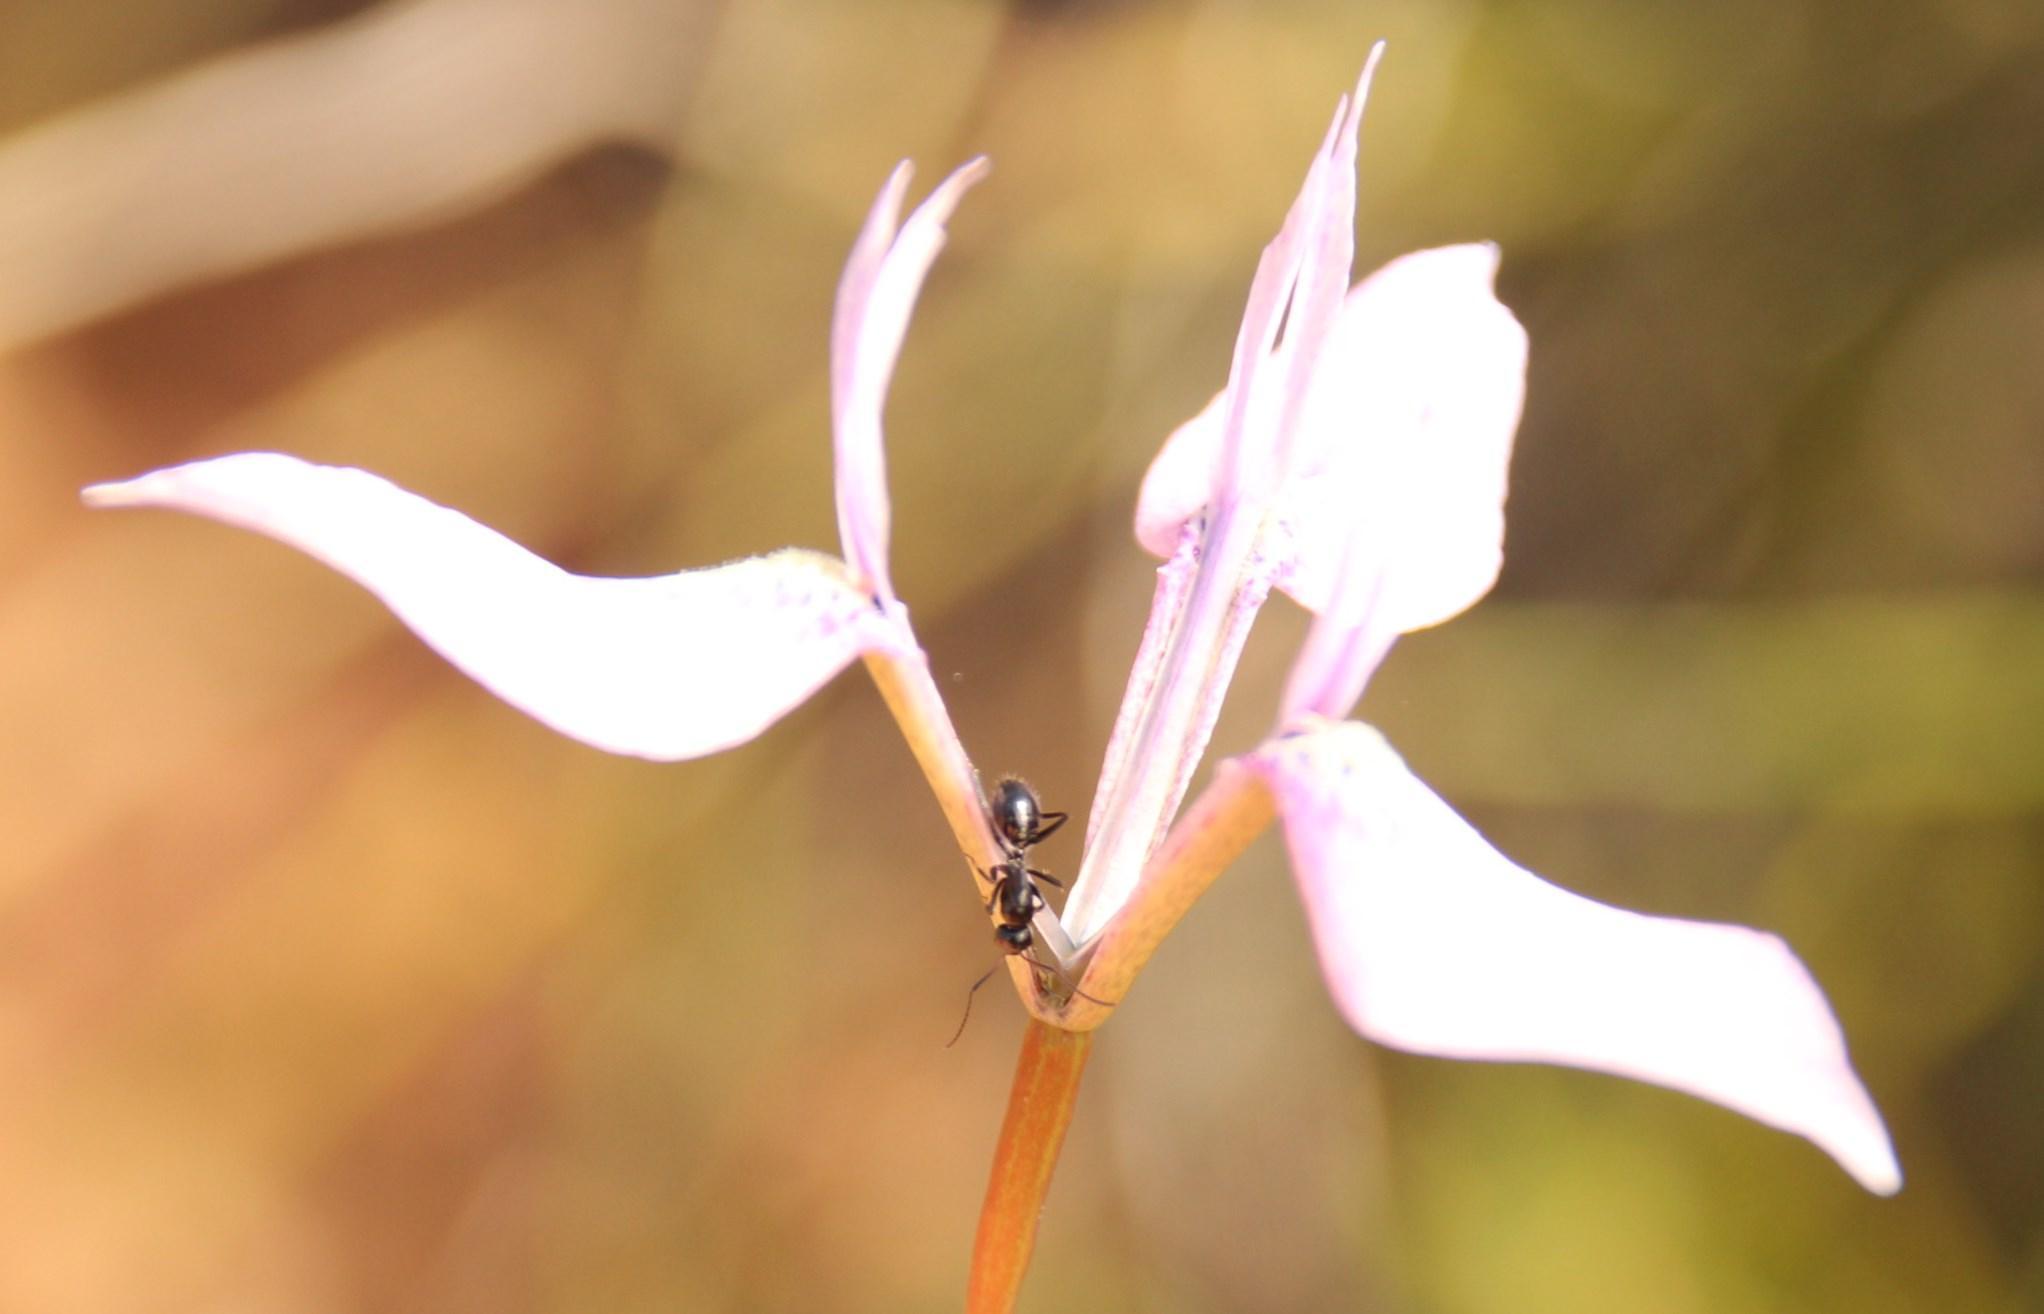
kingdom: Animalia
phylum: Arthropoda
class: Insecta
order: Hymenoptera
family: Formicidae
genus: Camponotus
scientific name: Camponotus niveosetosus
